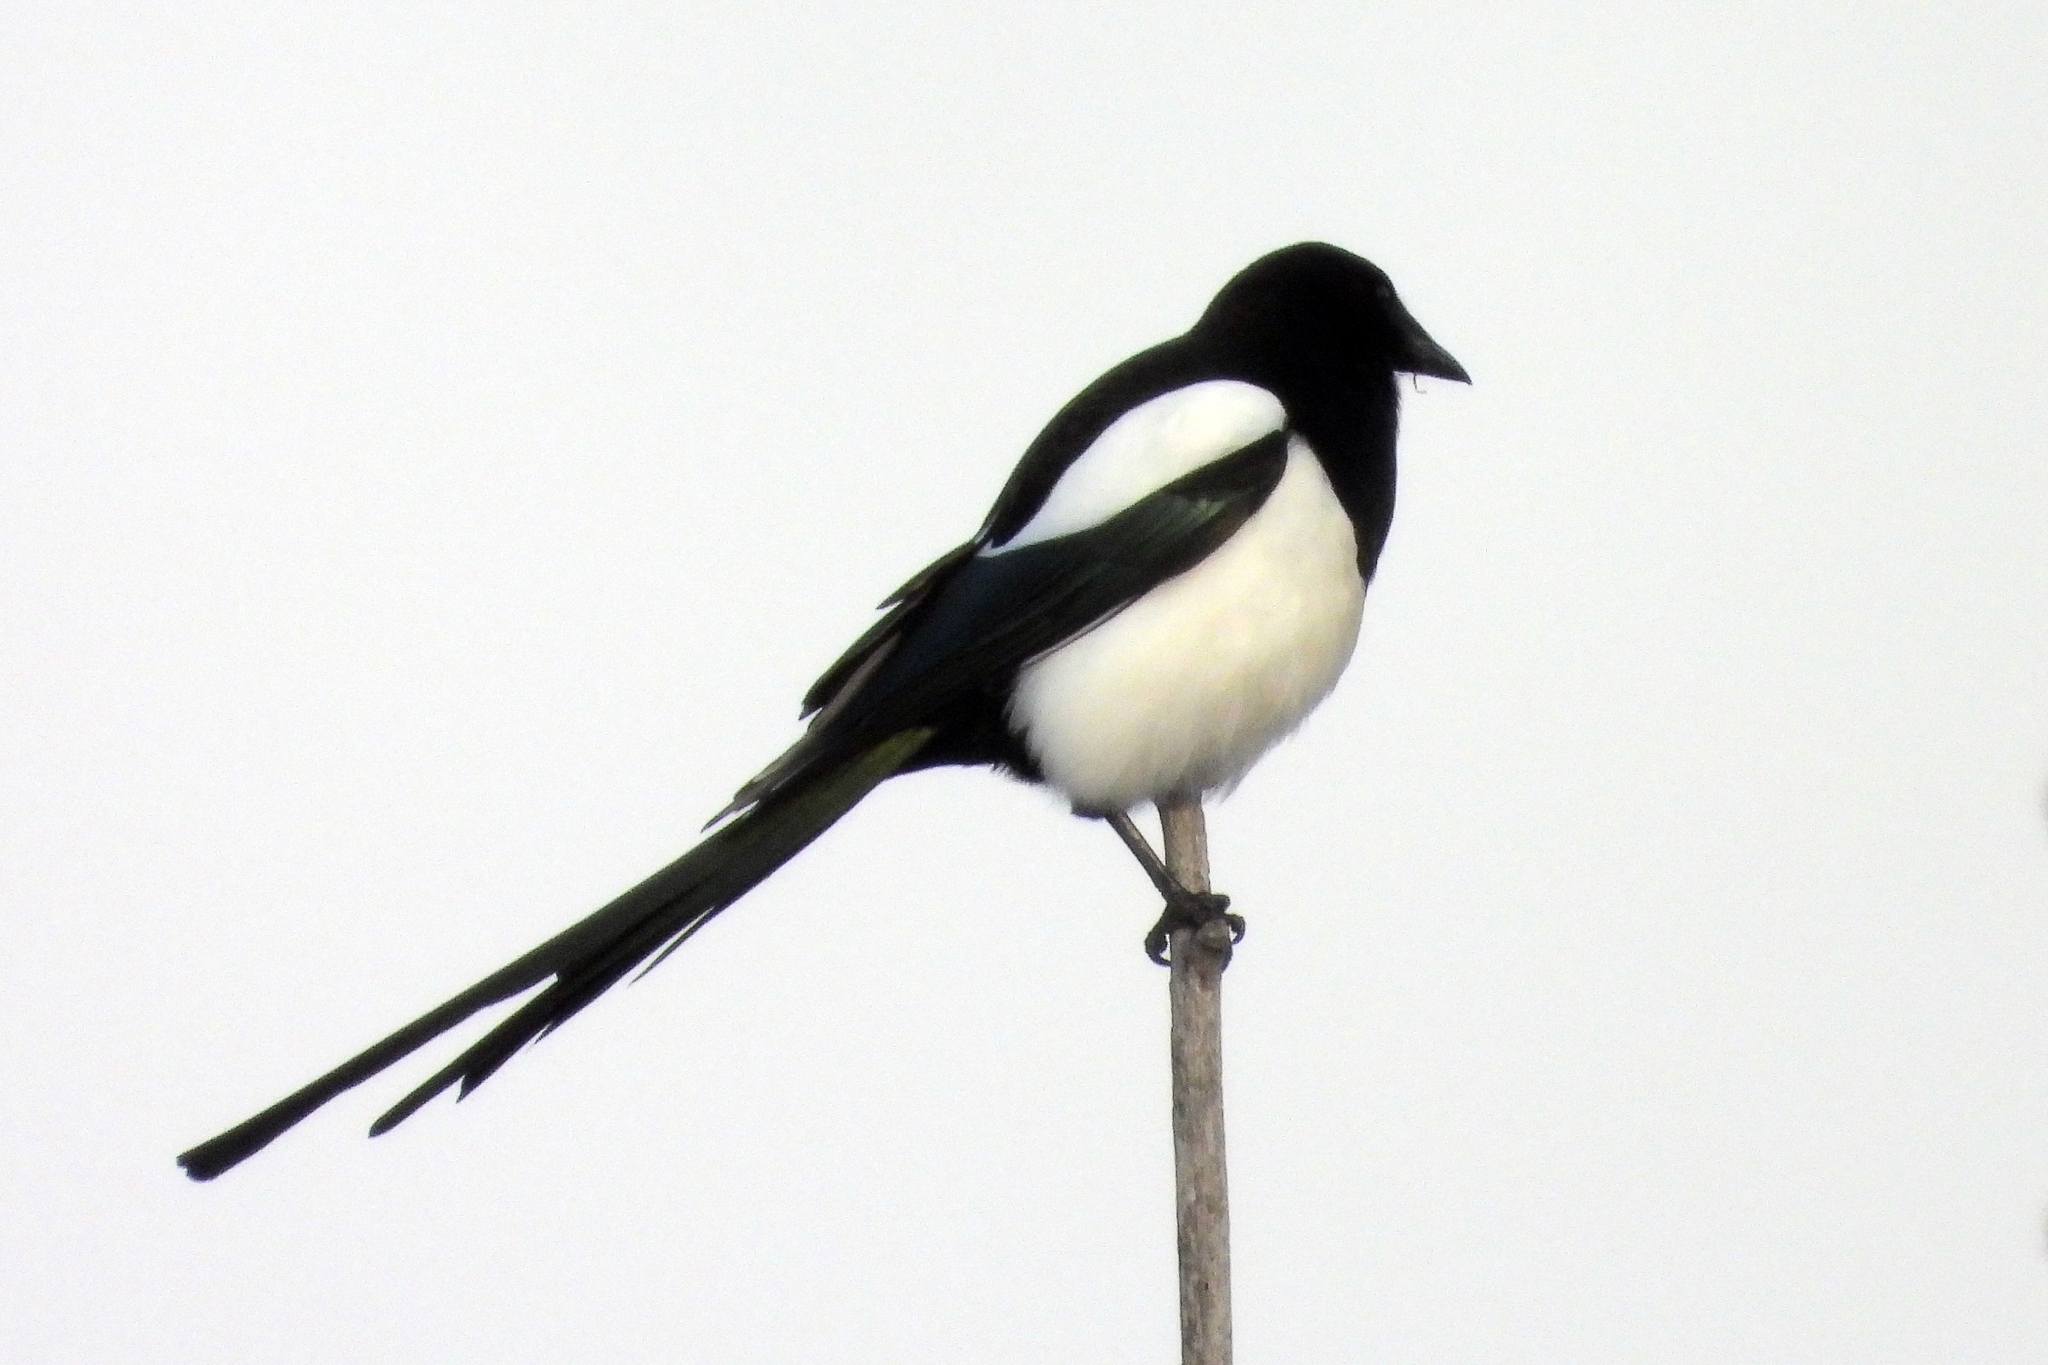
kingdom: Animalia
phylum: Chordata
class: Aves
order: Passeriformes
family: Corvidae
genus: Pica
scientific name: Pica pica
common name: Eurasian magpie
